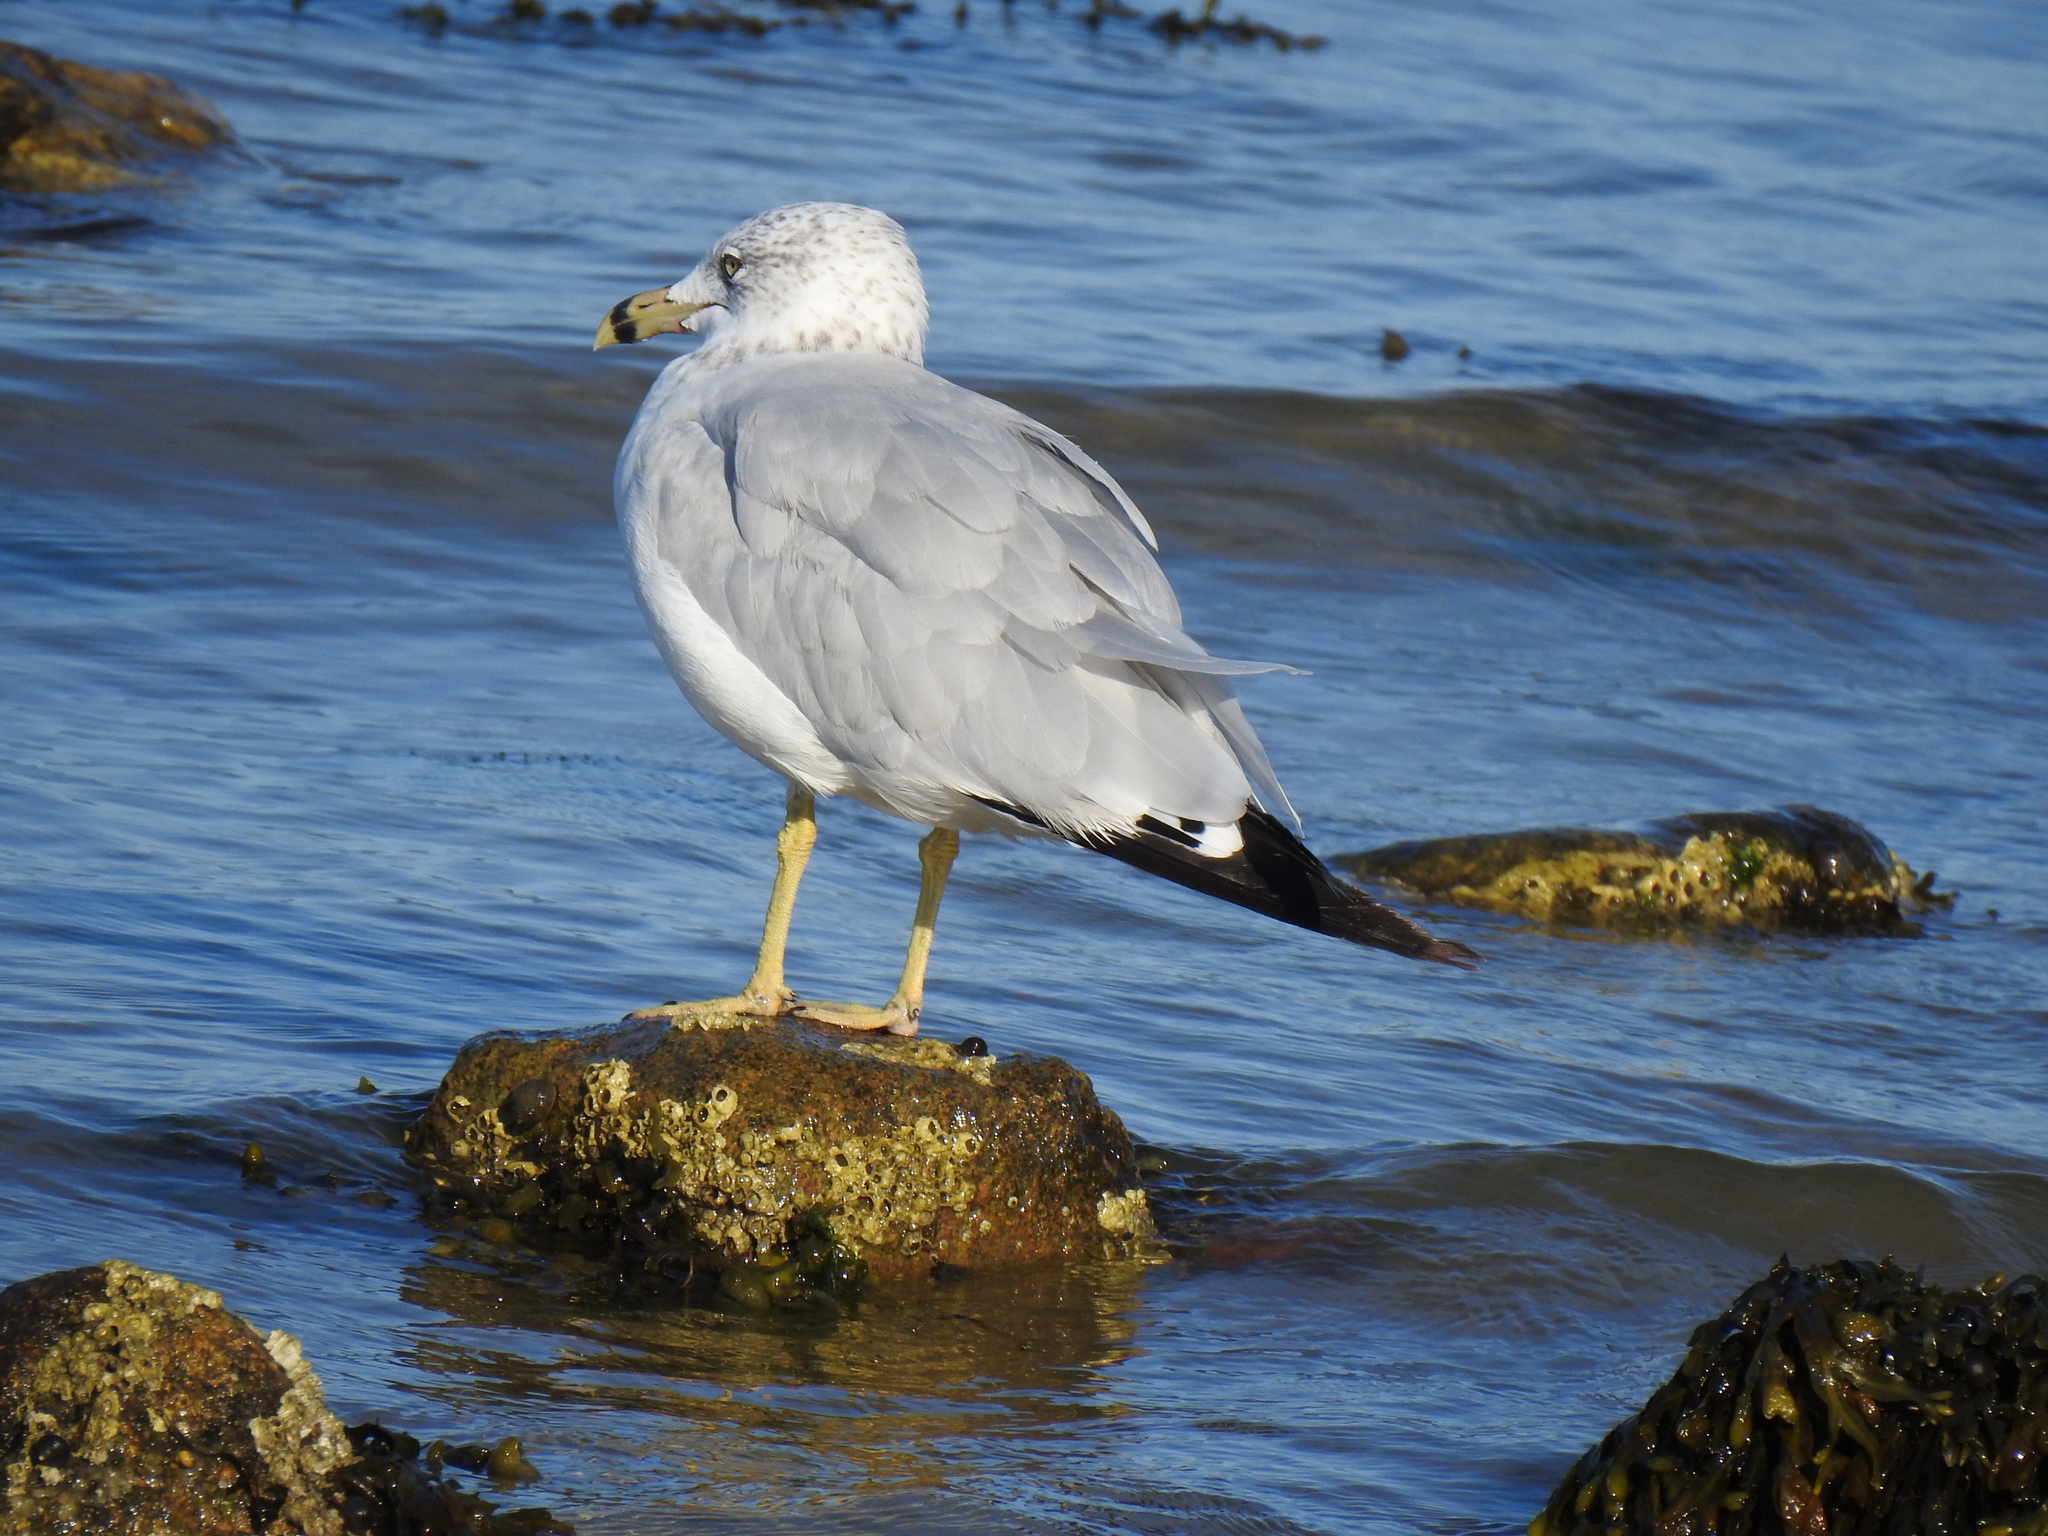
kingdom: Animalia
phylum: Chordata
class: Aves
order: Charadriiformes
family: Laridae
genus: Larus
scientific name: Larus delawarensis
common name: Ring-billed gull
